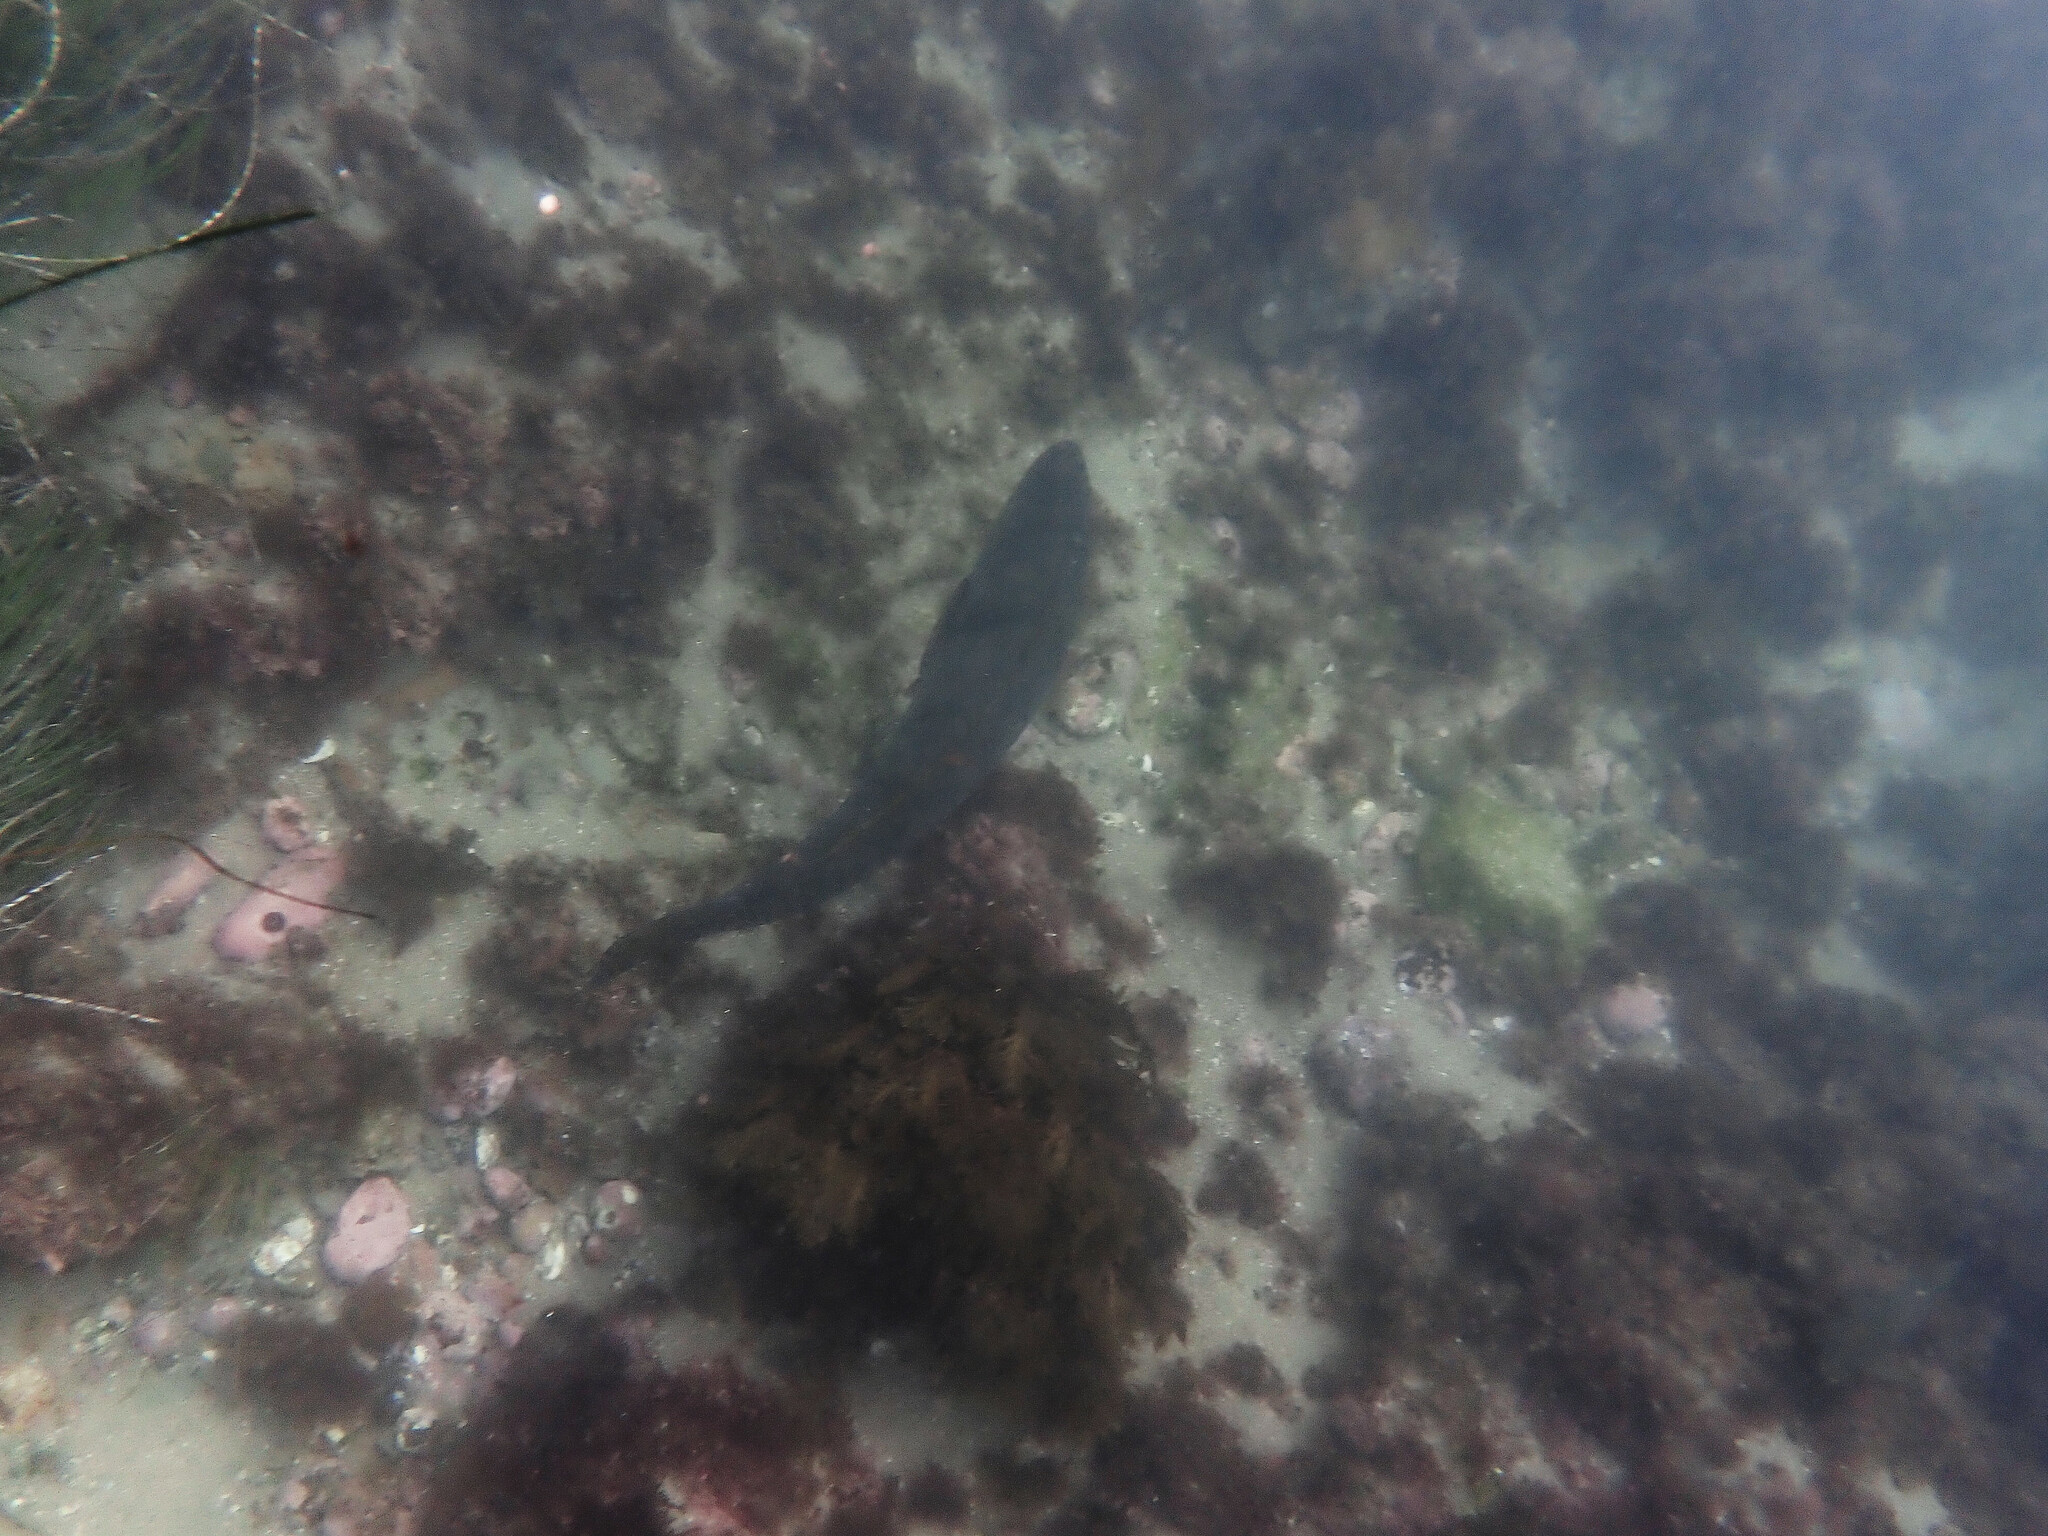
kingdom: Animalia
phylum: Chordata
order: Perciformes
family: Sciaenidae
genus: Atractoscion
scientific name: Atractoscion nobilis
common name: White seabass
